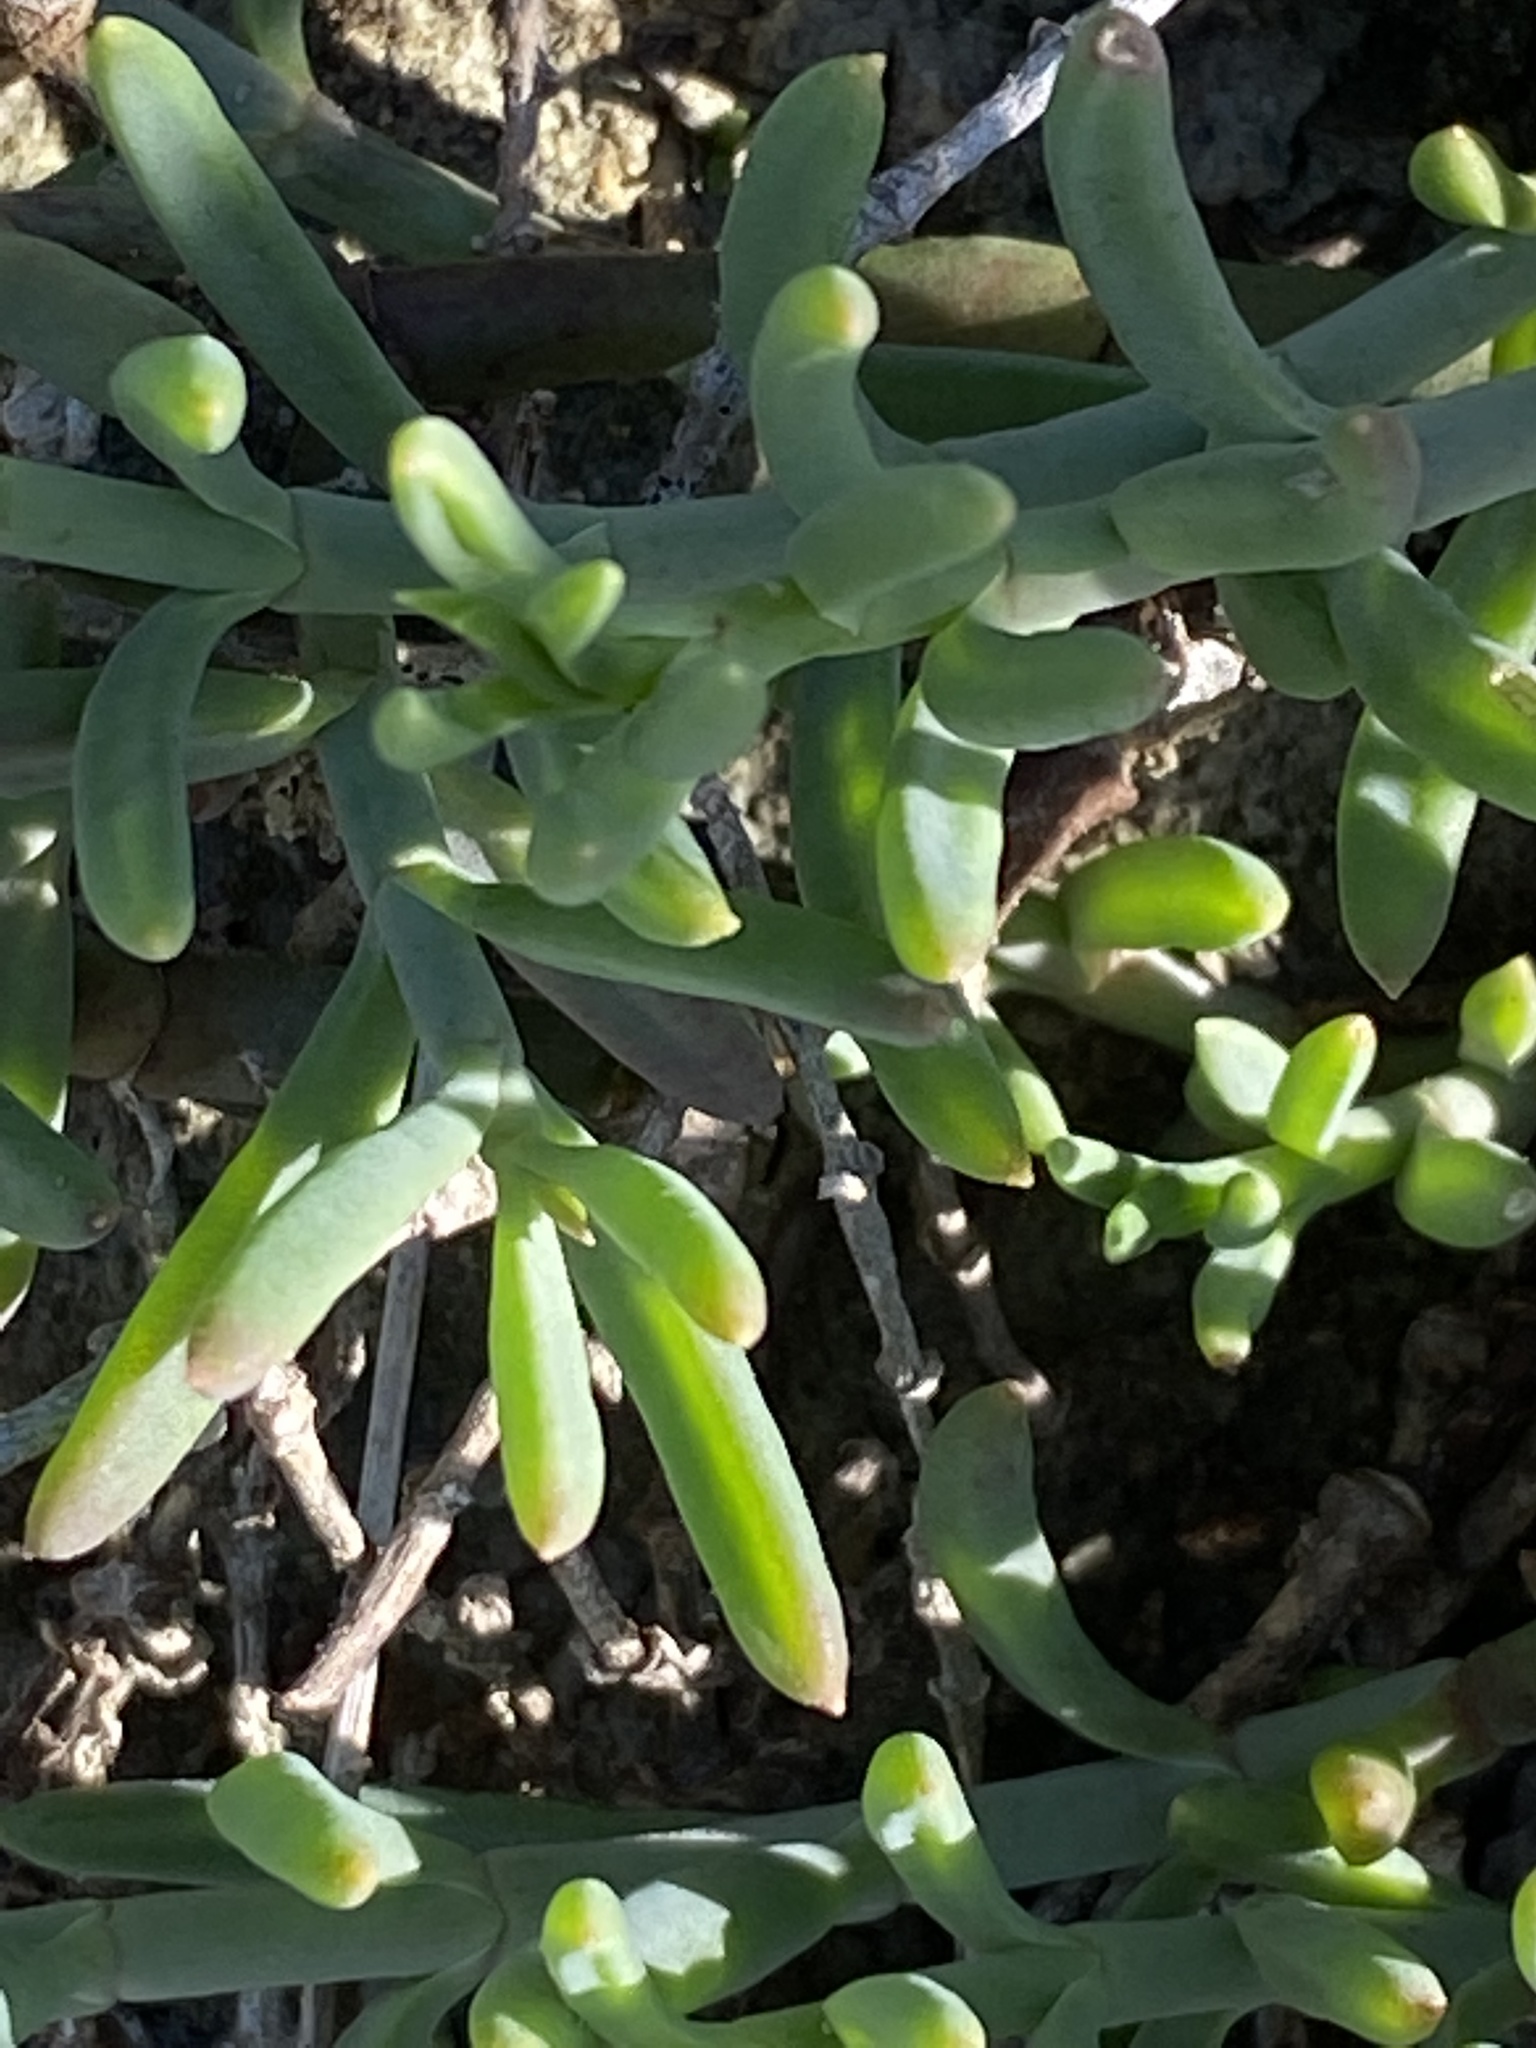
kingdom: Plantae
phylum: Tracheophyta
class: Magnoliopsida
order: Caryophyllales
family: Aizoaceae
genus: Tetragonia
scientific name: Tetragonia fruticosa
